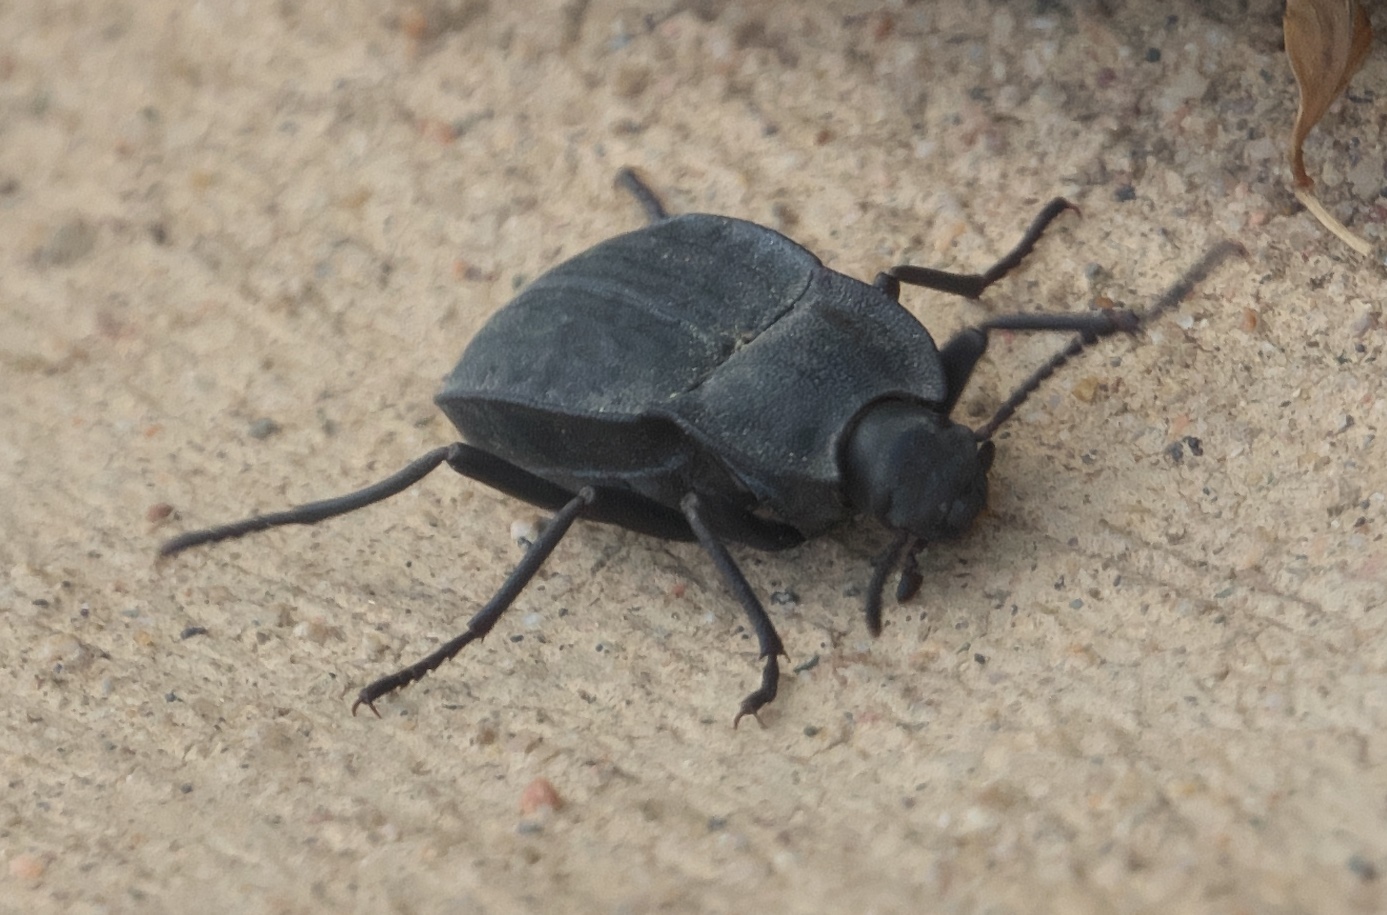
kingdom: Animalia
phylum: Arthropoda
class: Insecta
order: Coleoptera
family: Tenebrionidae
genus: Stenomorpha
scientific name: Stenomorpha opaca
